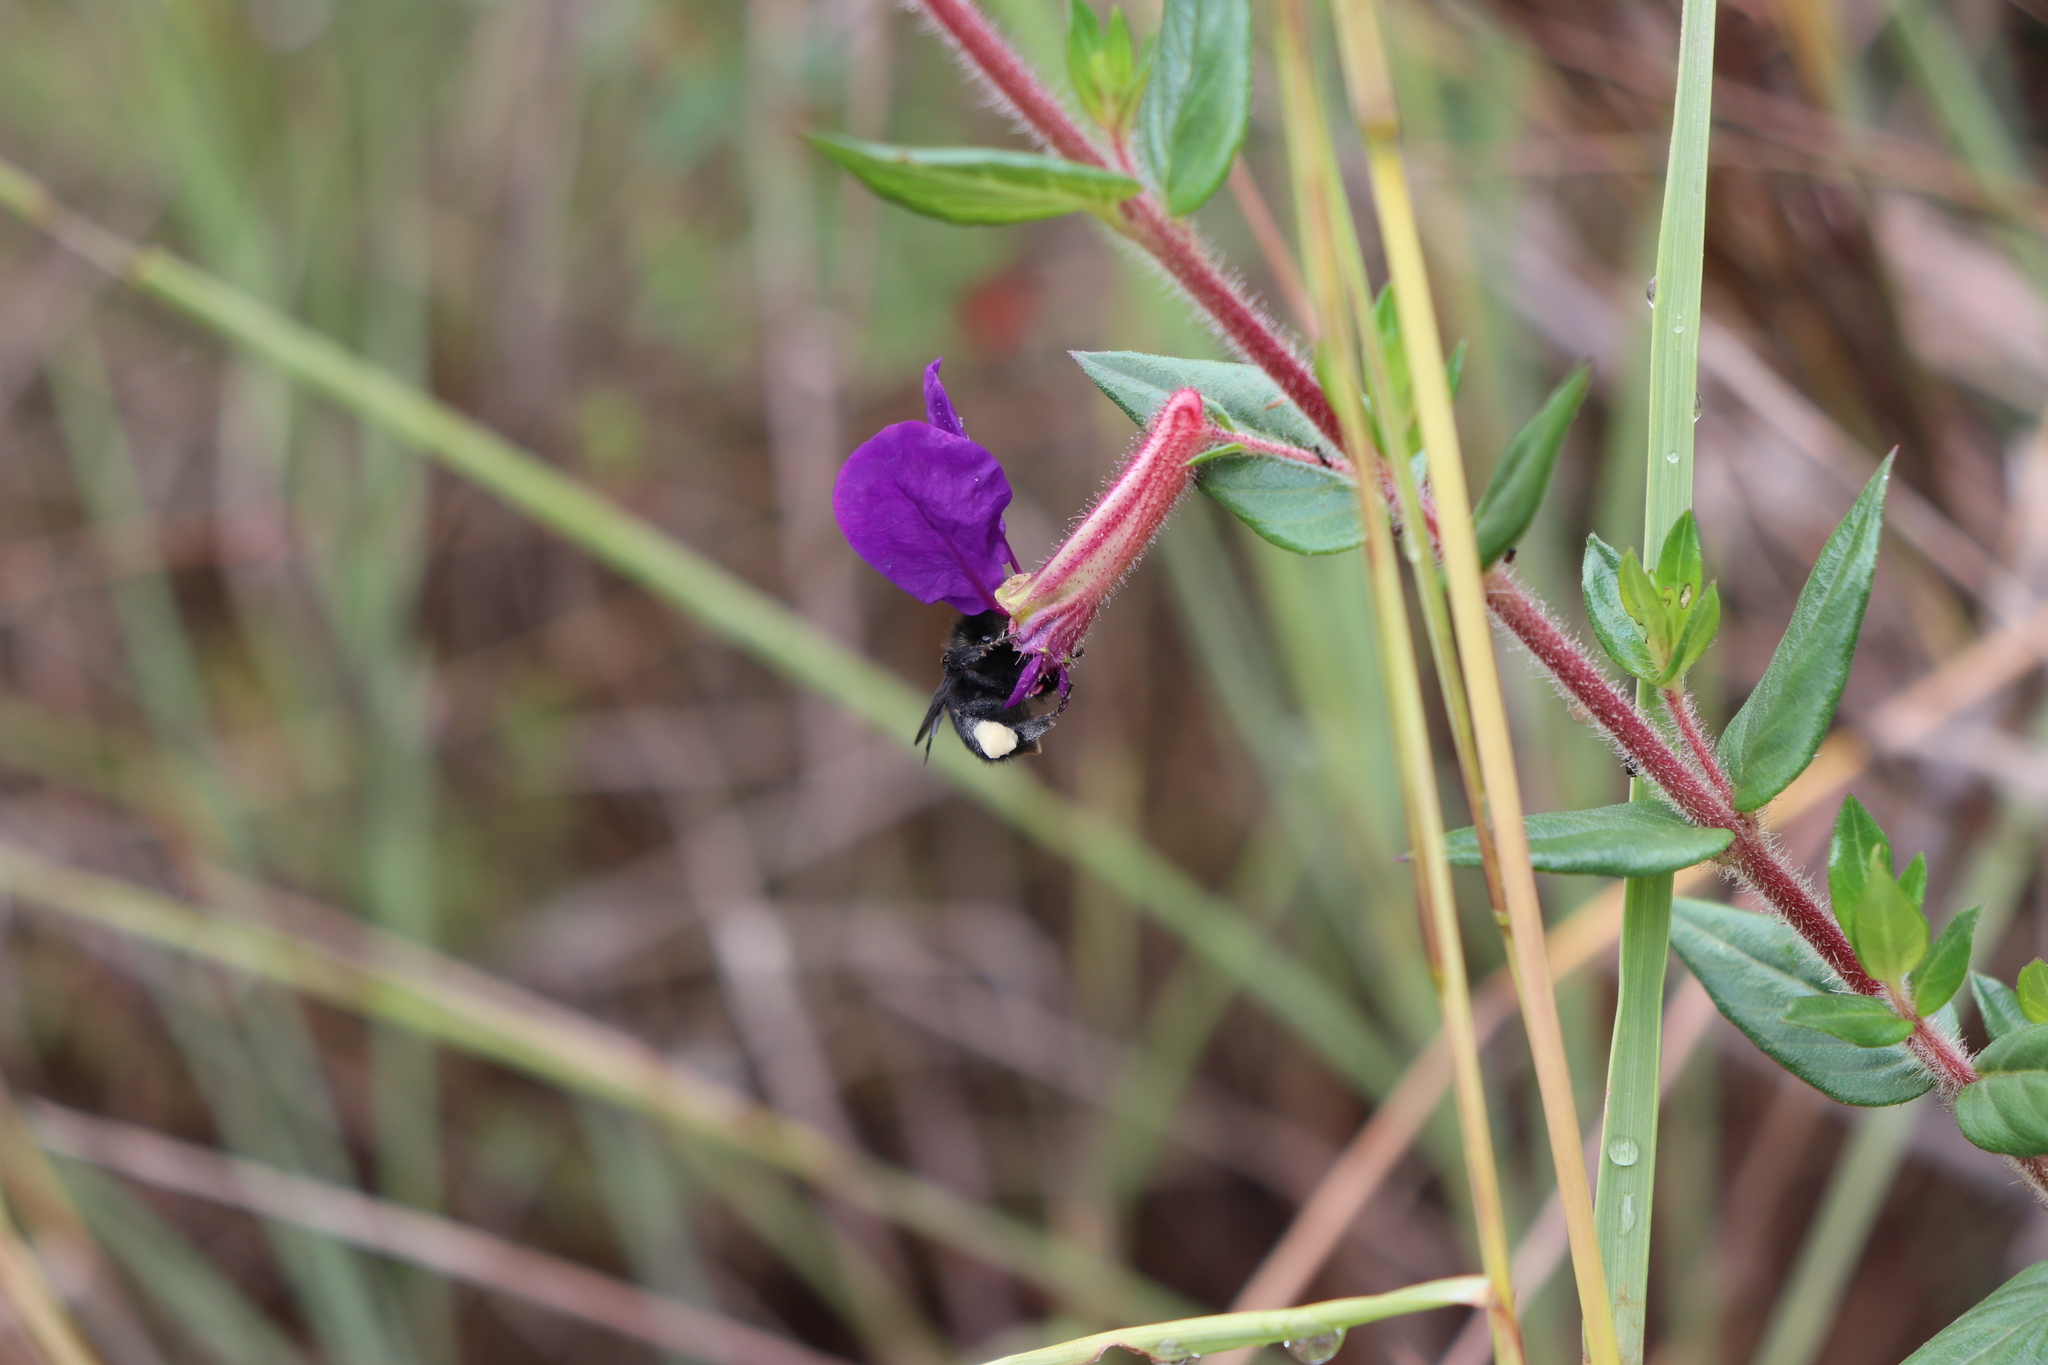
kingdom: Plantae
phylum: Tracheophyta
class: Magnoliopsida
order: Myrtales
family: Lythraceae
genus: Cuphea
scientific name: Cuphea dipetala
